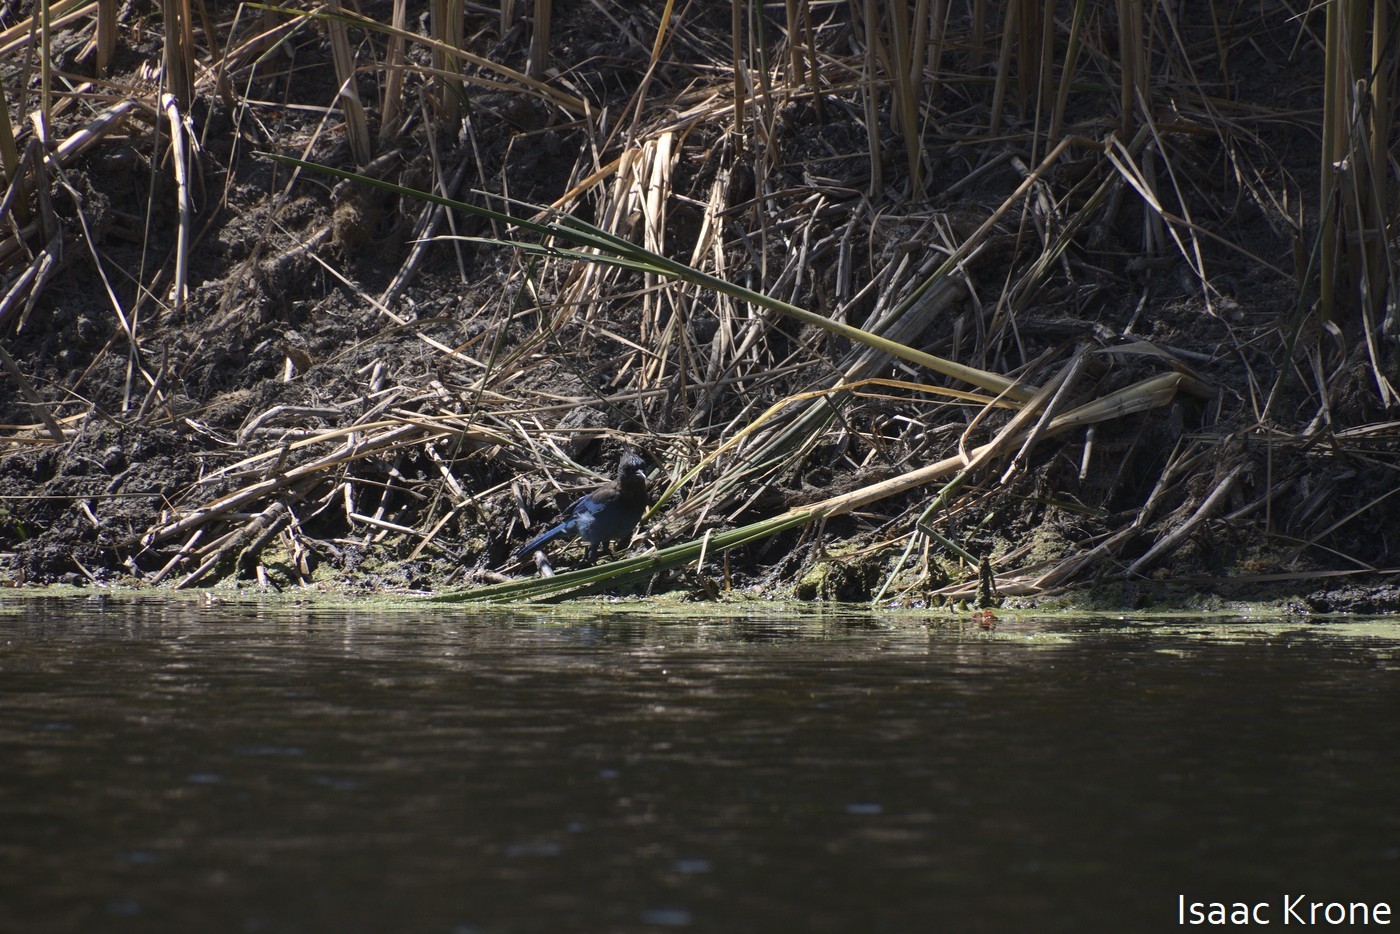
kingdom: Animalia
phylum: Chordata
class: Aves
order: Passeriformes
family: Corvidae
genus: Cyanocitta
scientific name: Cyanocitta stelleri
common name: Steller's jay
